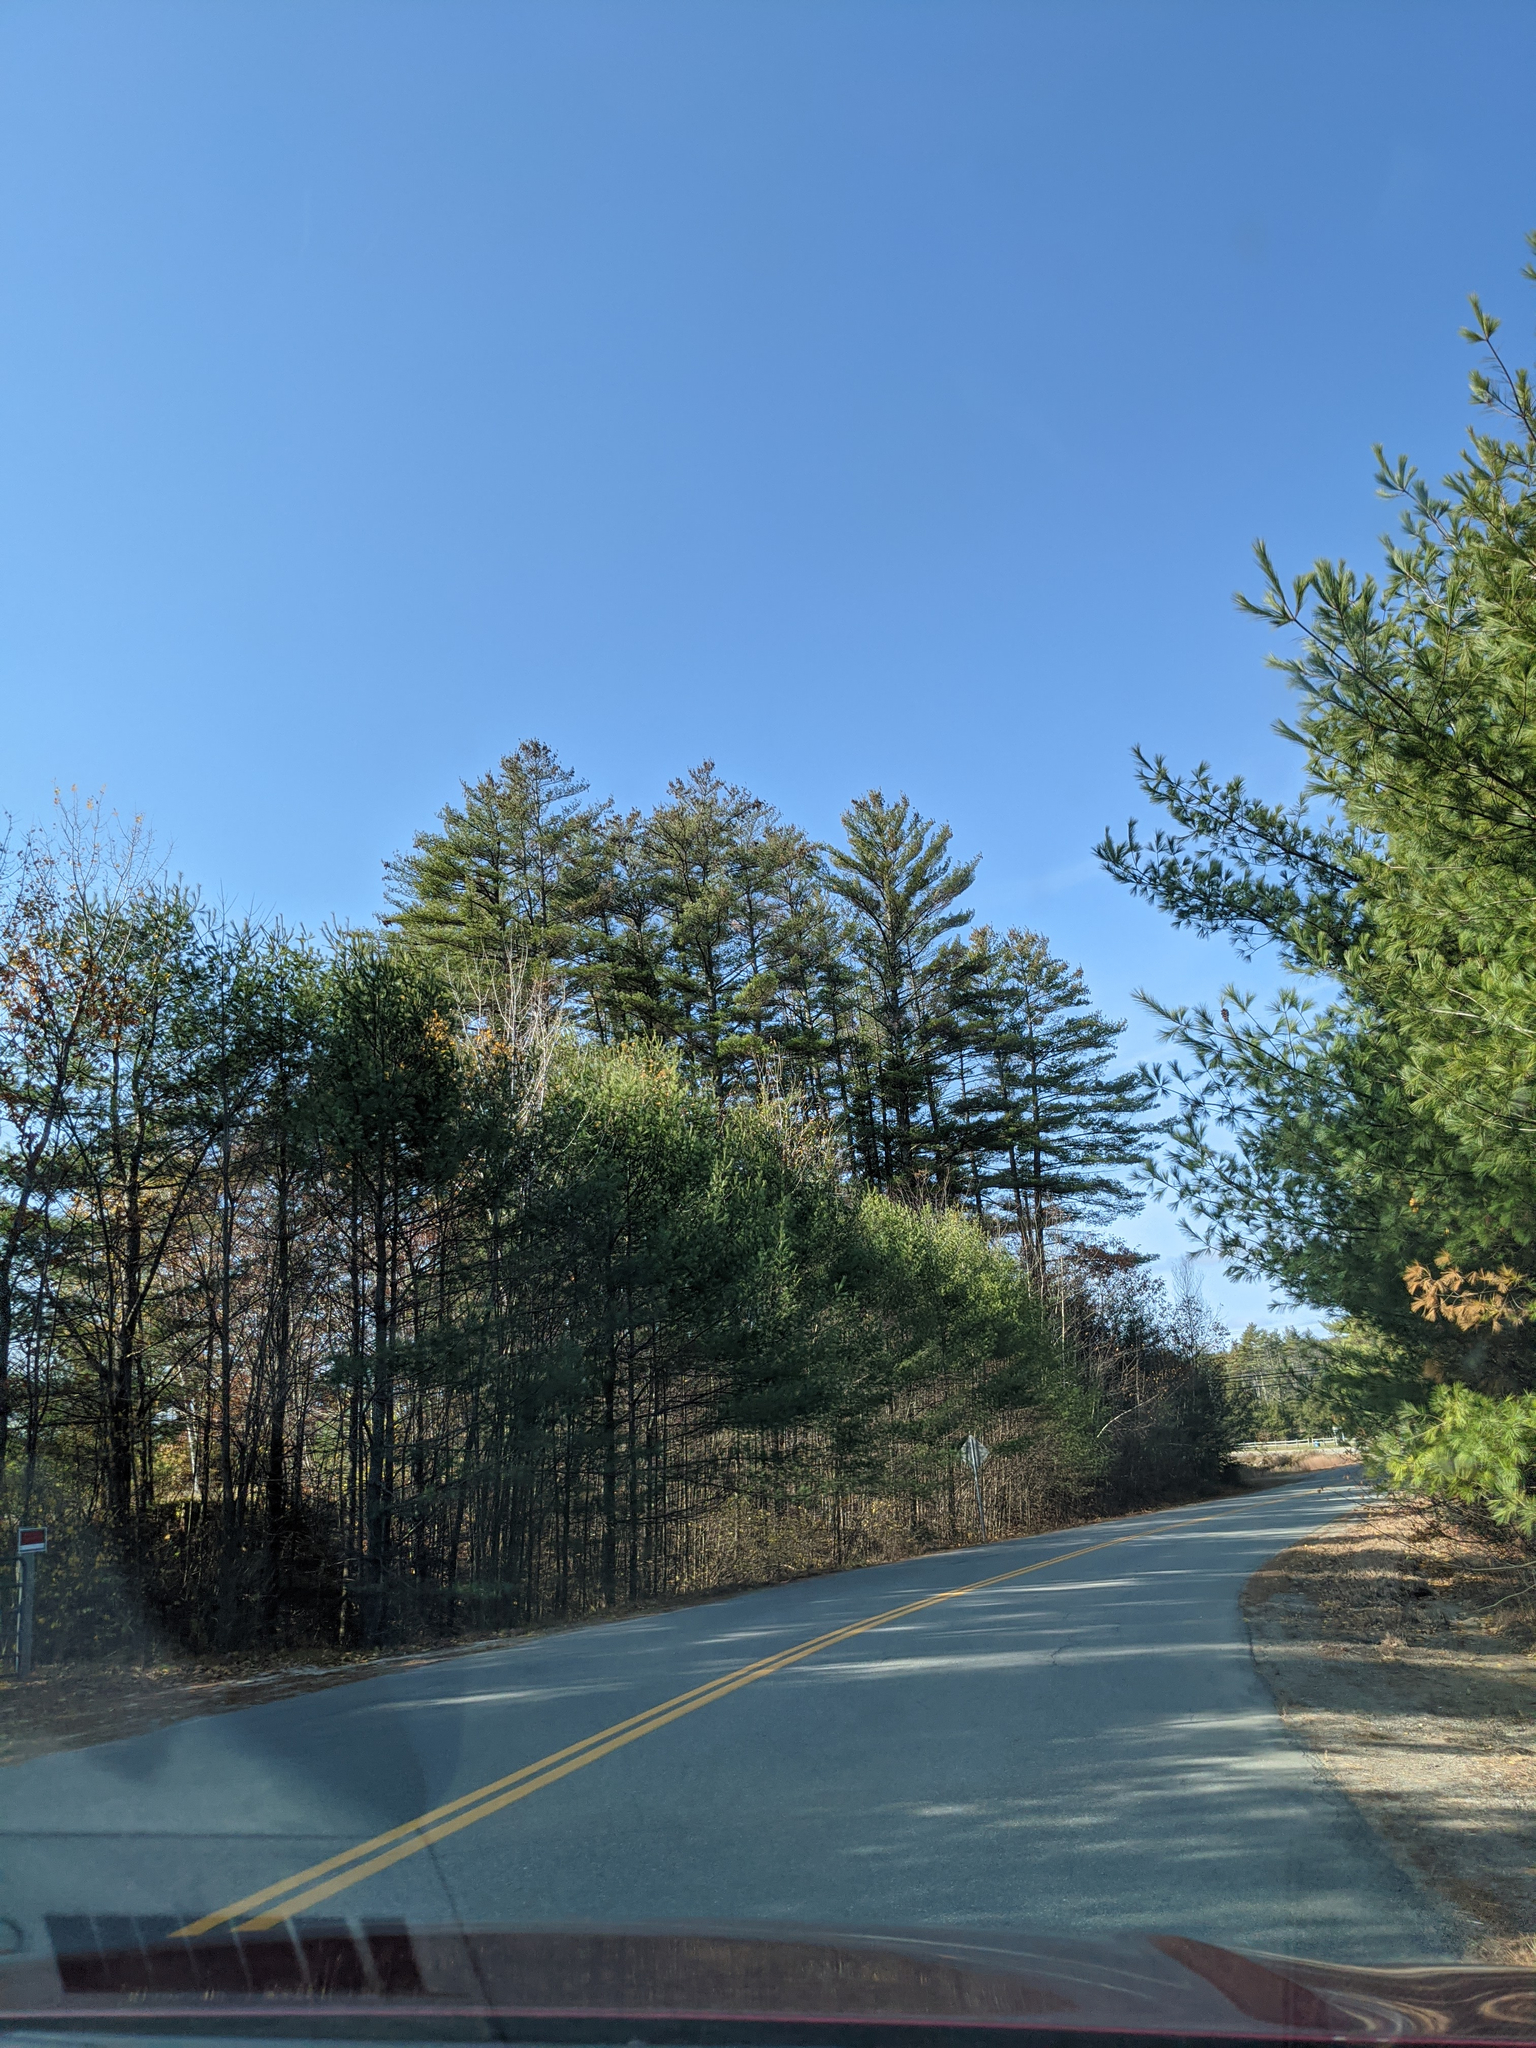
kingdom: Plantae
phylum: Tracheophyta
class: Pinopsida
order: Pinales
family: Pinaceae
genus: Pinus
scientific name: Pinus strobus
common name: Weymouth pine
